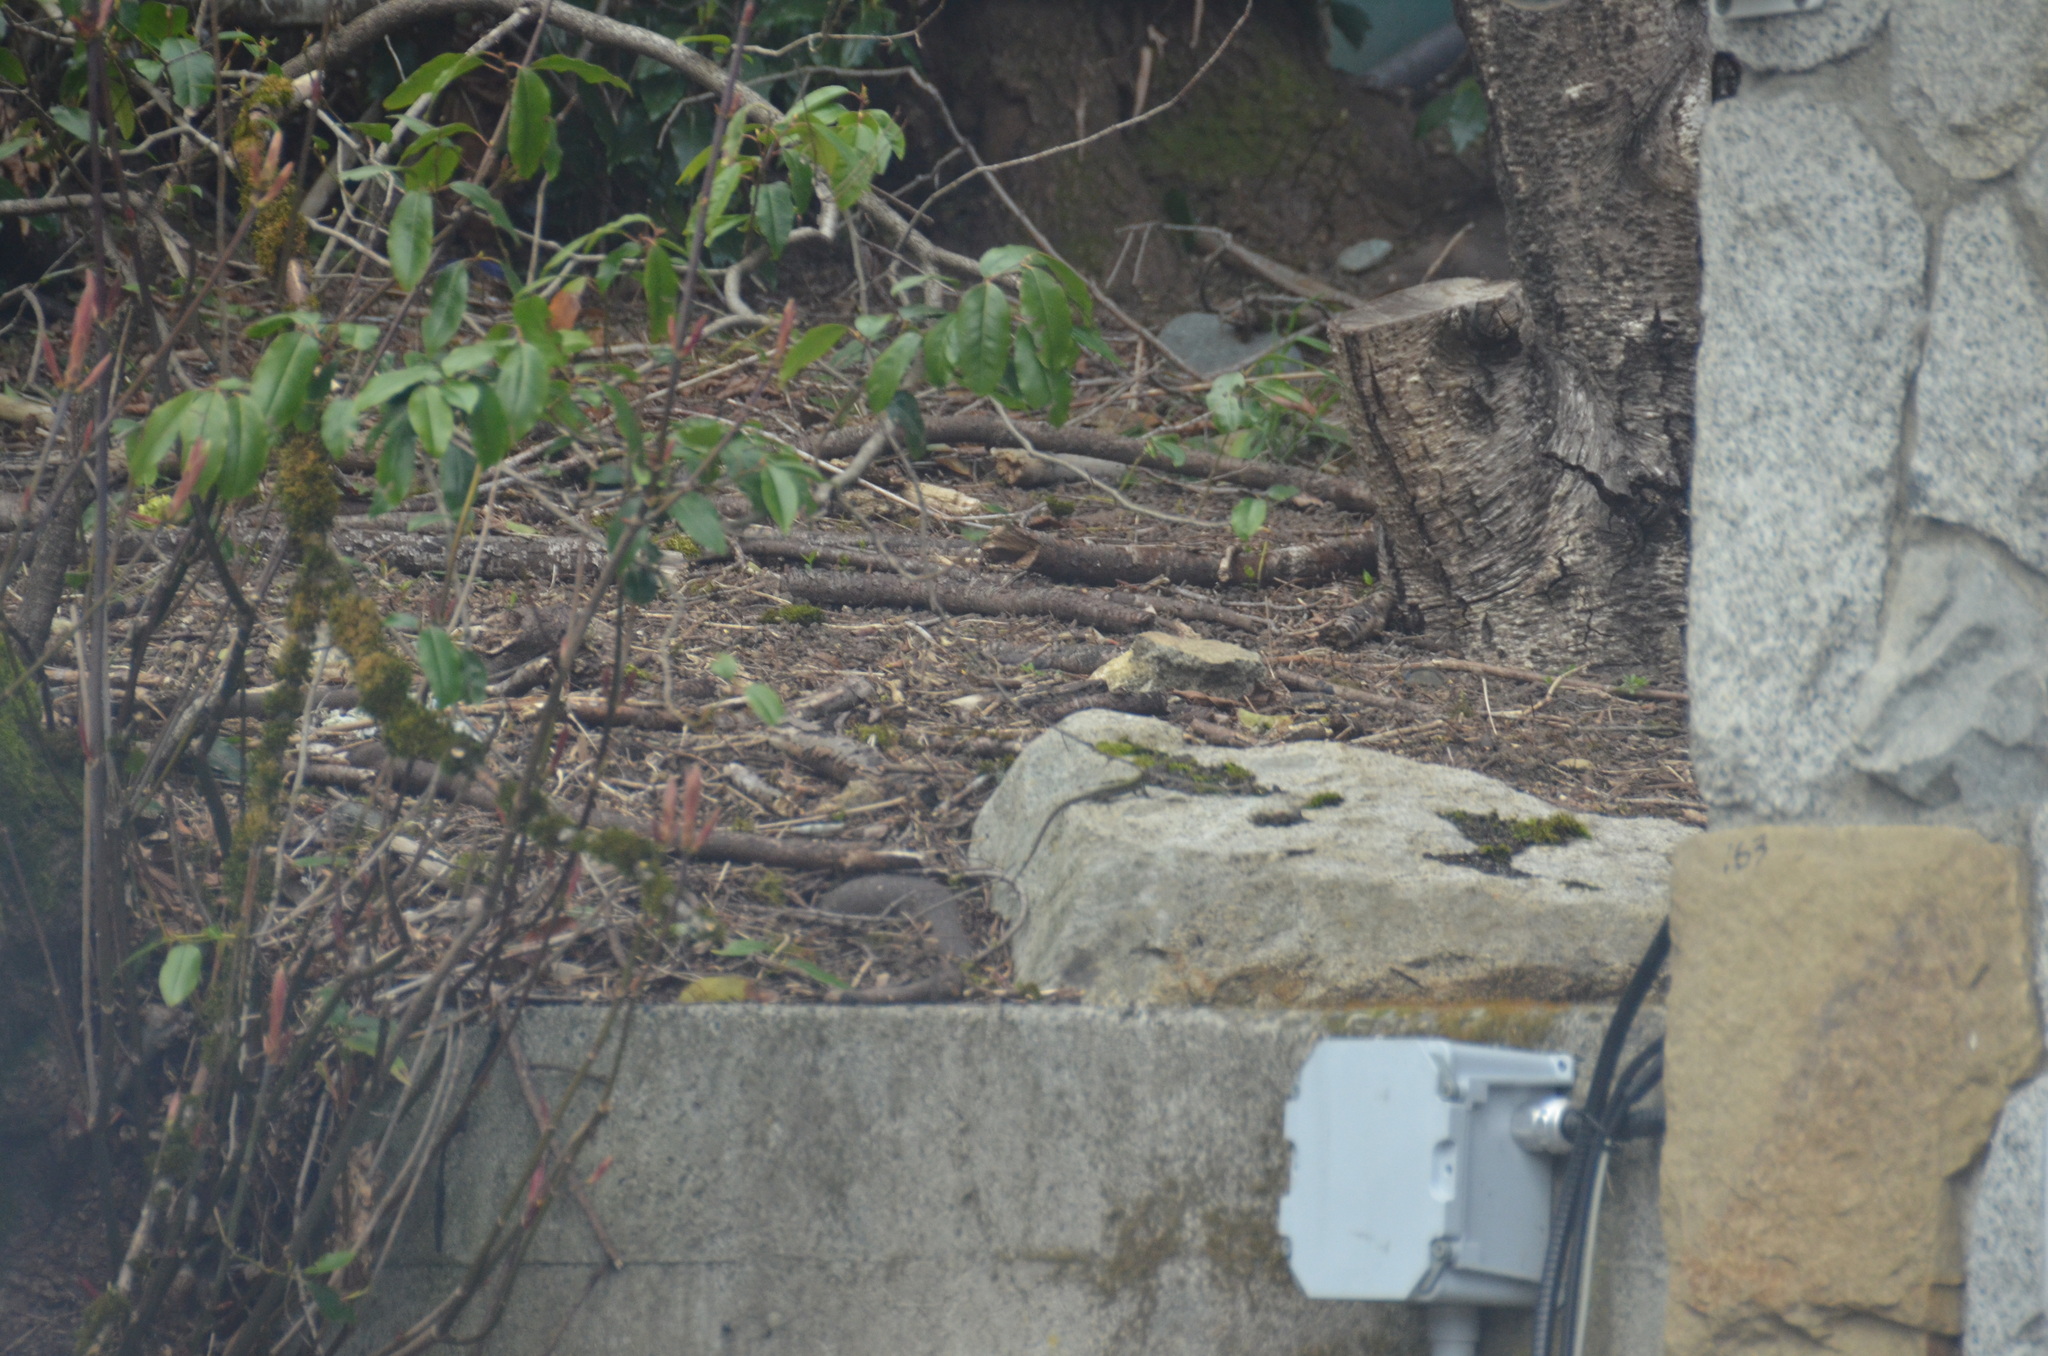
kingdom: Animalia
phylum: Chordata
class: Squamata
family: Lacertidae
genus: Podarcis
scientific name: Podarcis muralis
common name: Common wall lizard
